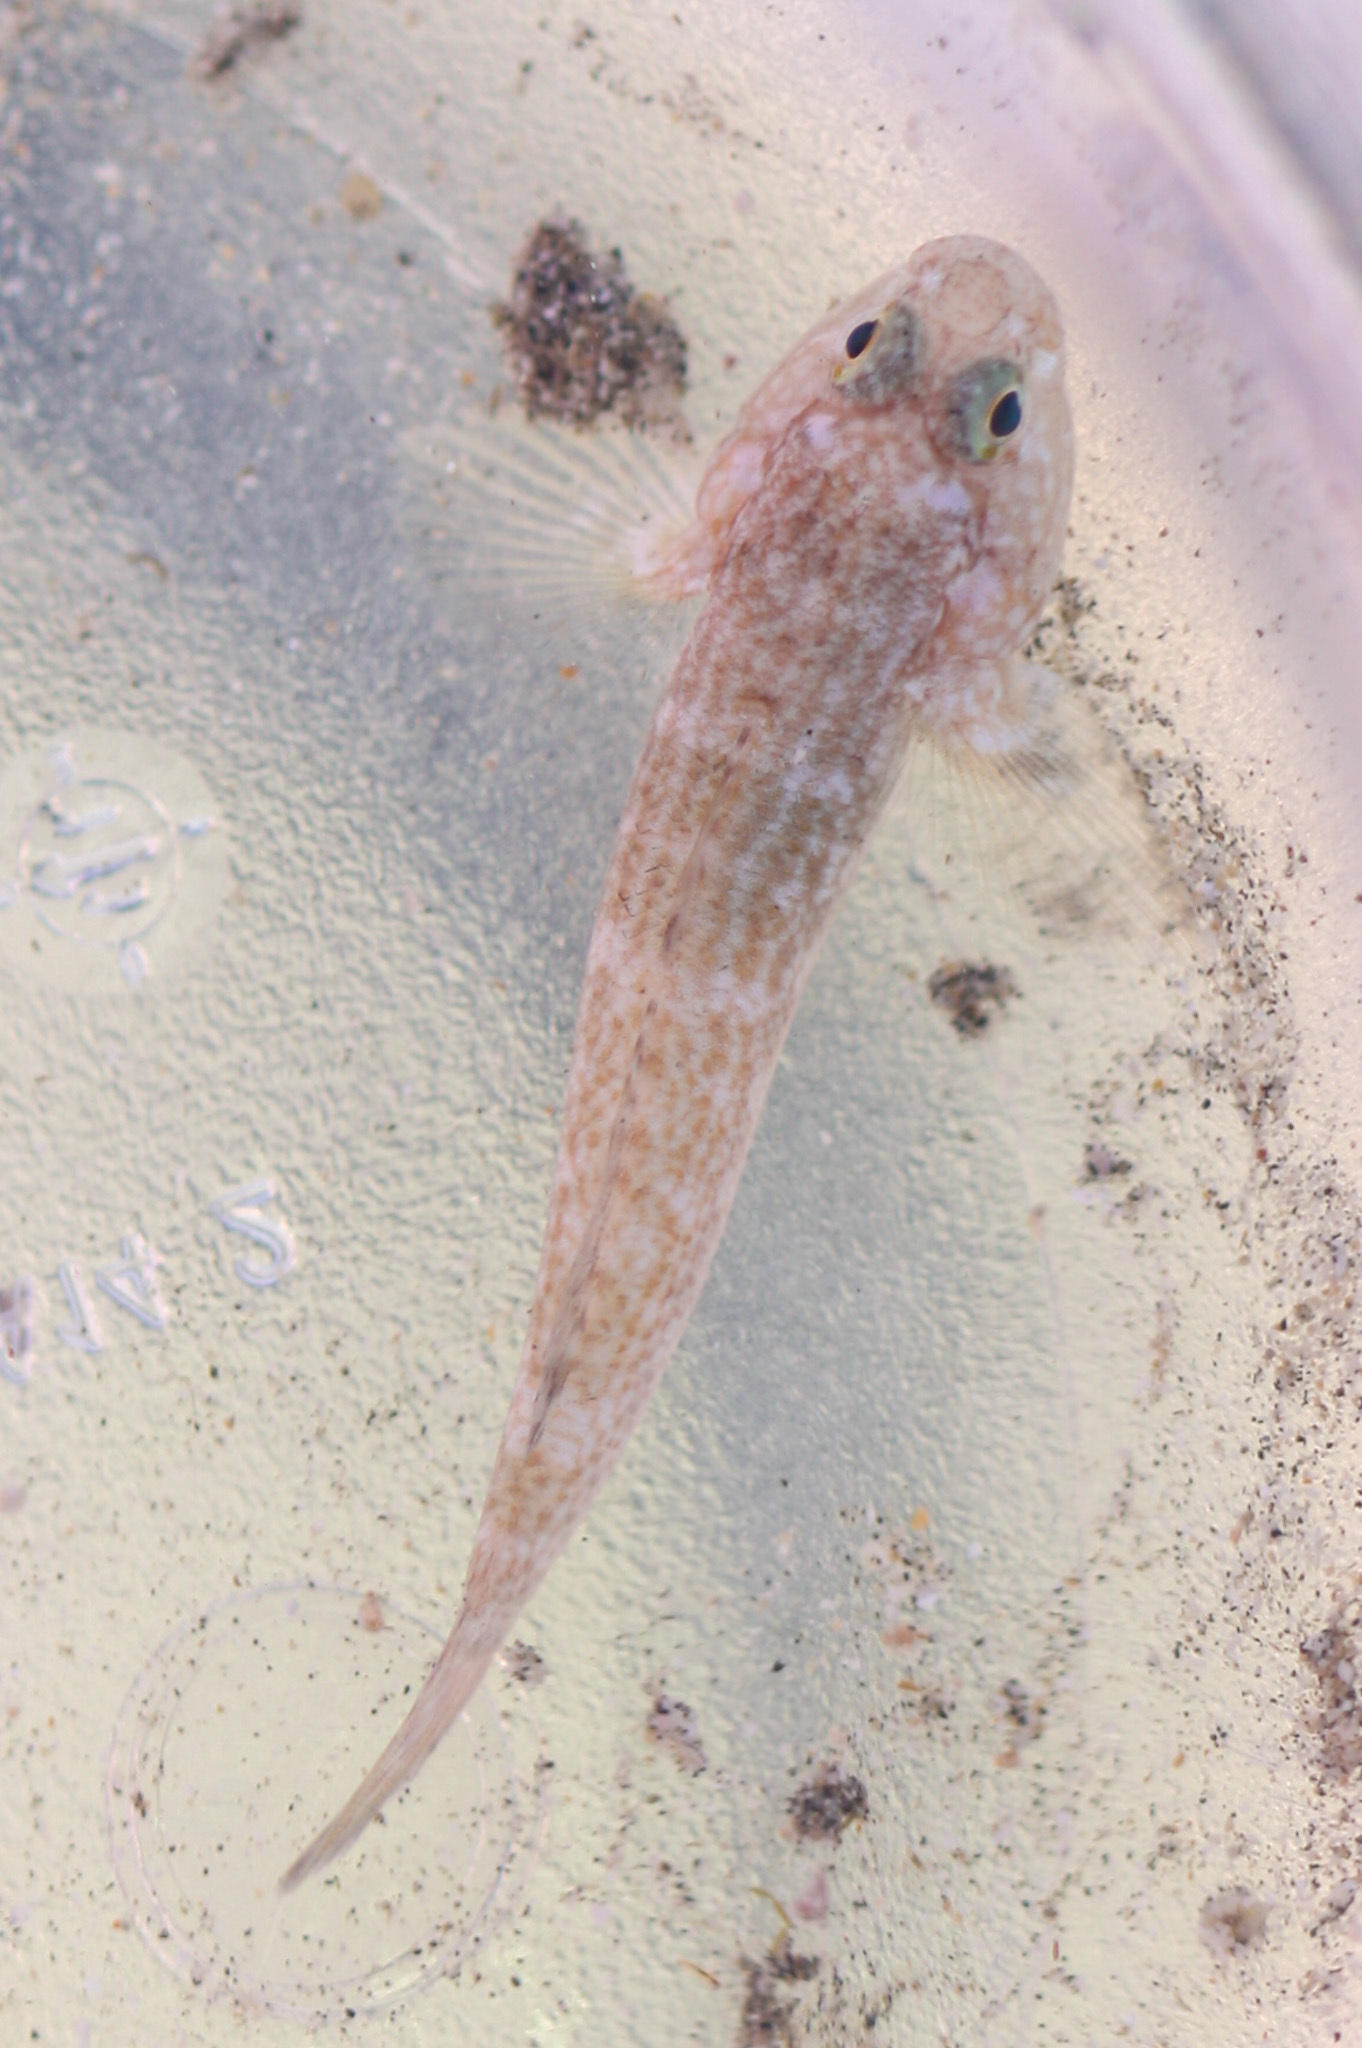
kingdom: Animalia
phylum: Chordata
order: Perciformes
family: Gobiidae
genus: Bathygobius
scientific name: Bathygobius ramosus
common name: Panamic frillfin
